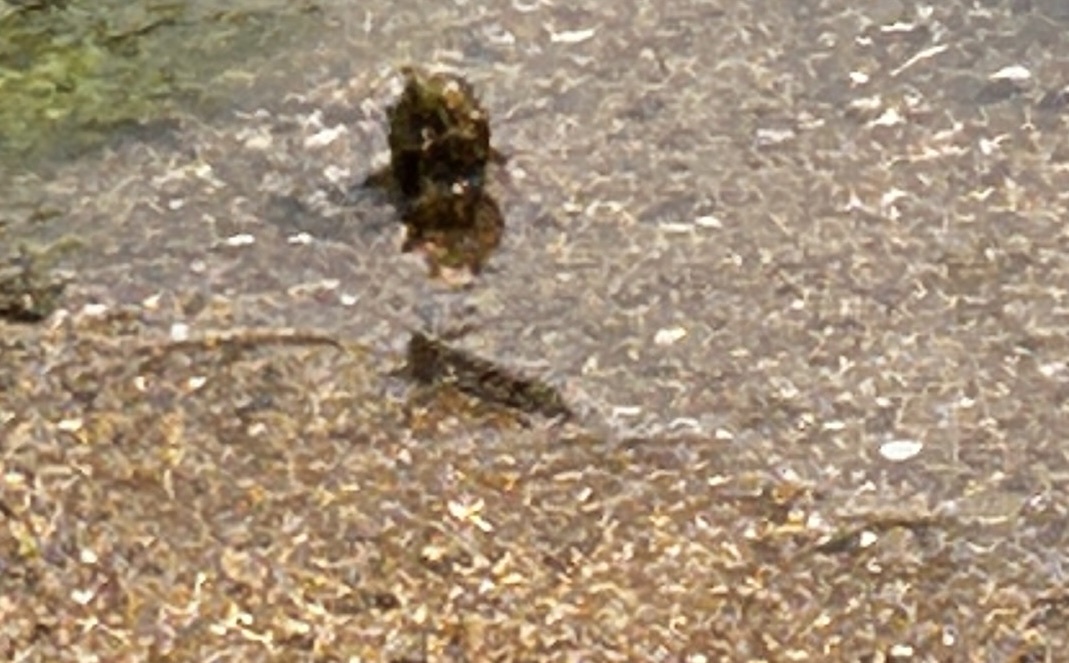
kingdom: Animalia
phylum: Chordata
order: Perciformes
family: Gobiidae
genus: Periophthalmus
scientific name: Periophthalmus modestus
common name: Black goby
